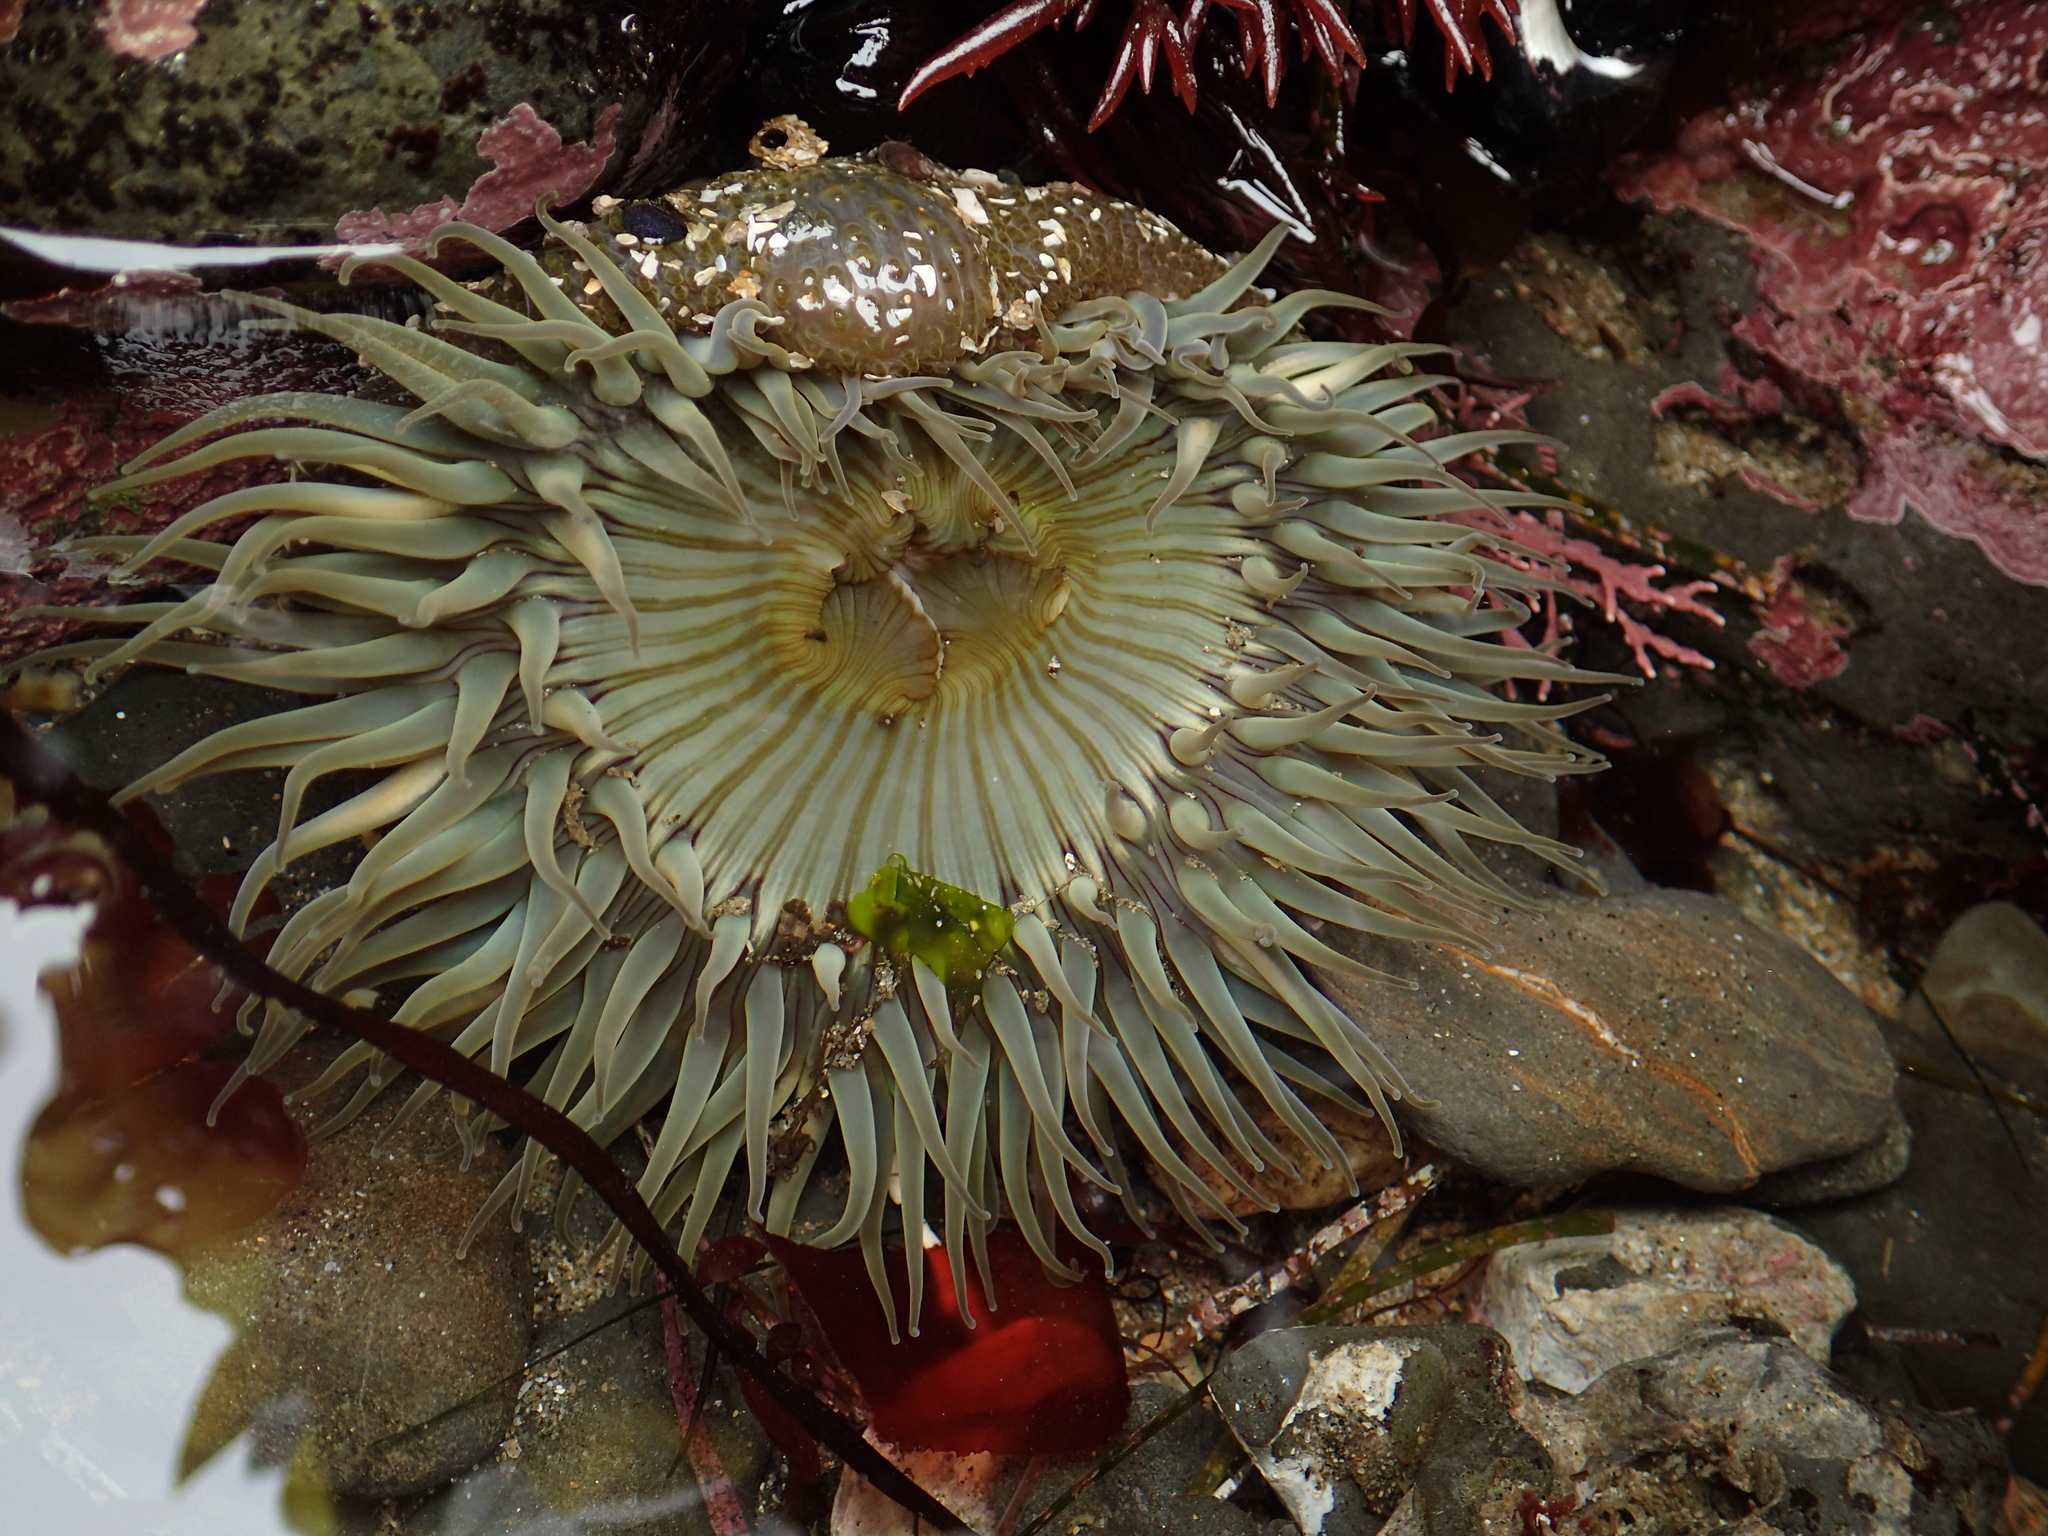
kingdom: Animalia
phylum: Cnidaria
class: Anthozoa
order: Actiniaria
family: Actiniidae
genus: Anthopleura
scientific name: Anthopleura sola
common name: Sun anemone
